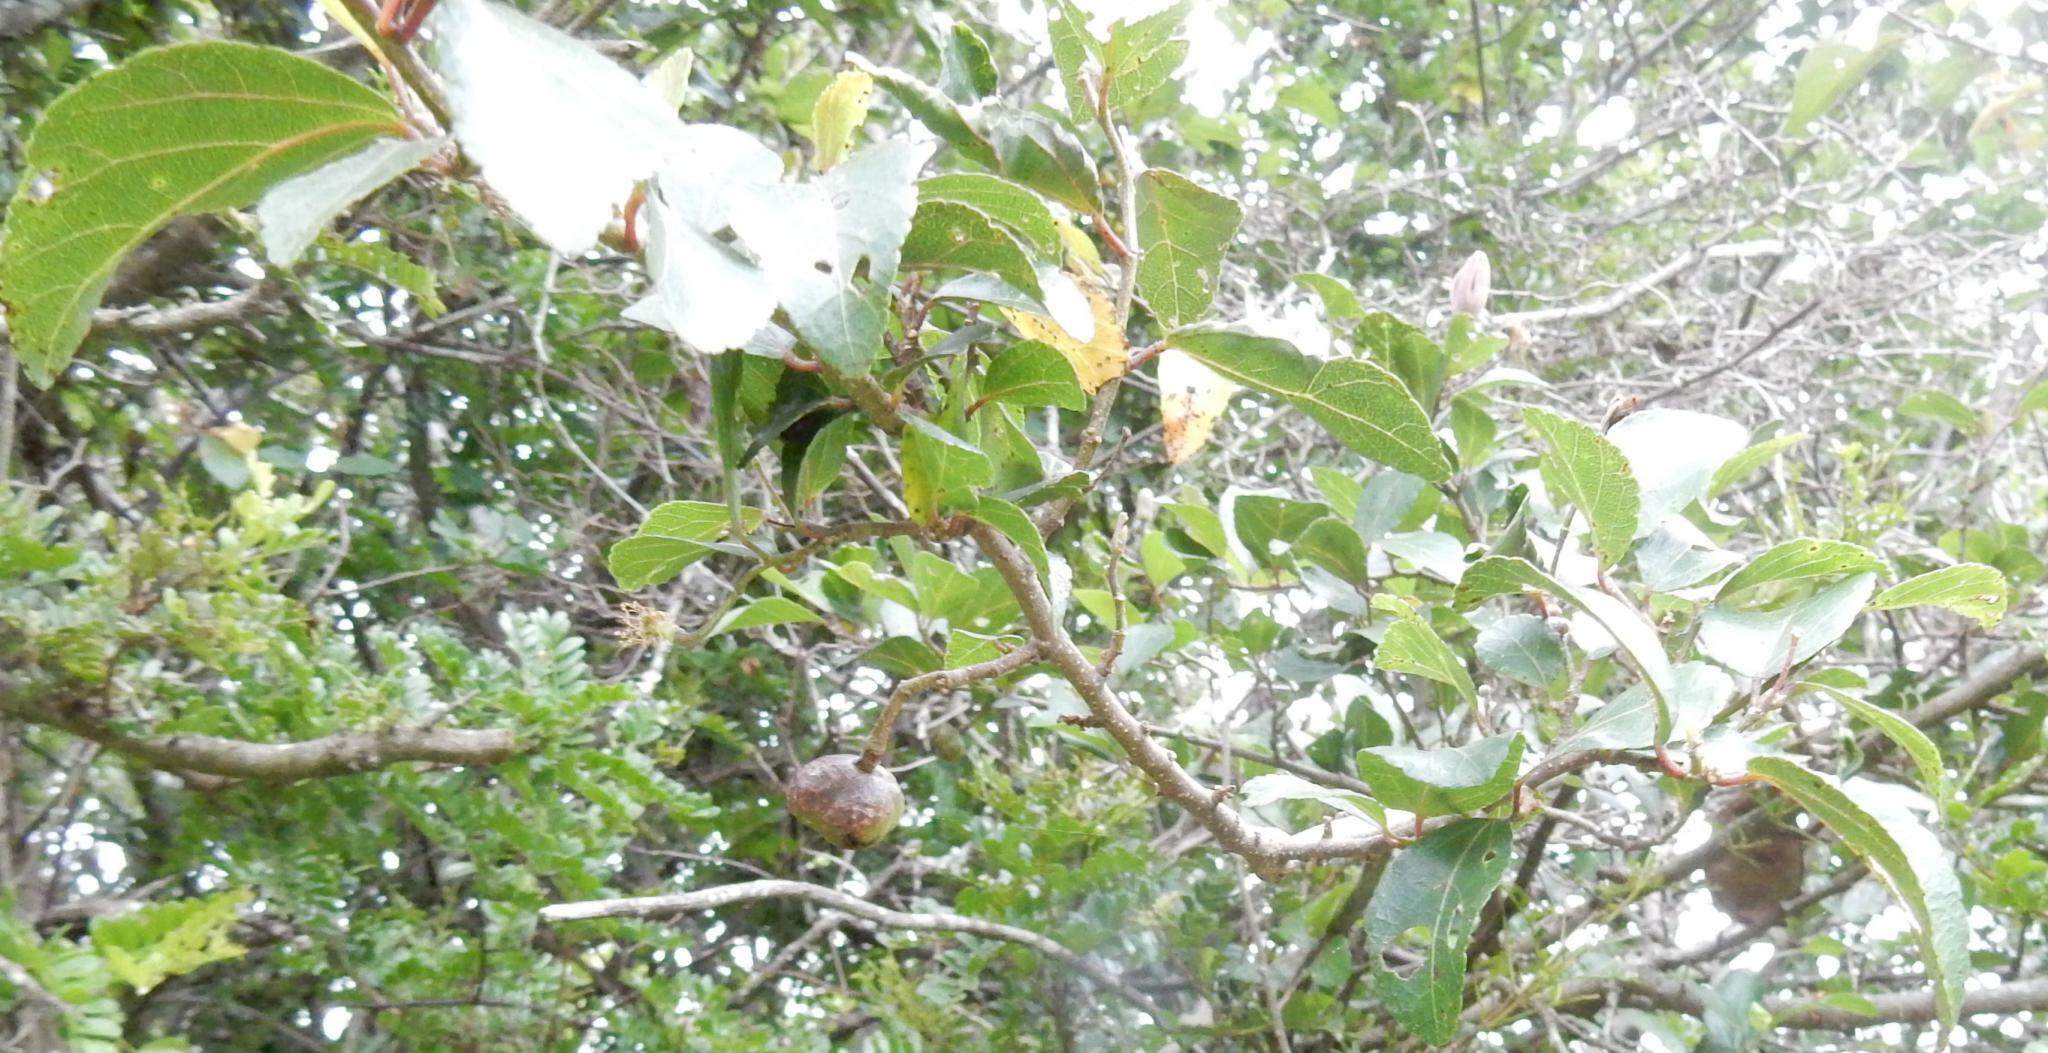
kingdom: Plantae
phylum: Tracheophyta
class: Magnoliopsida
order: Malvales
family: Malvaceae
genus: Grewia
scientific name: Grewia occidentalis
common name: Crossberry
